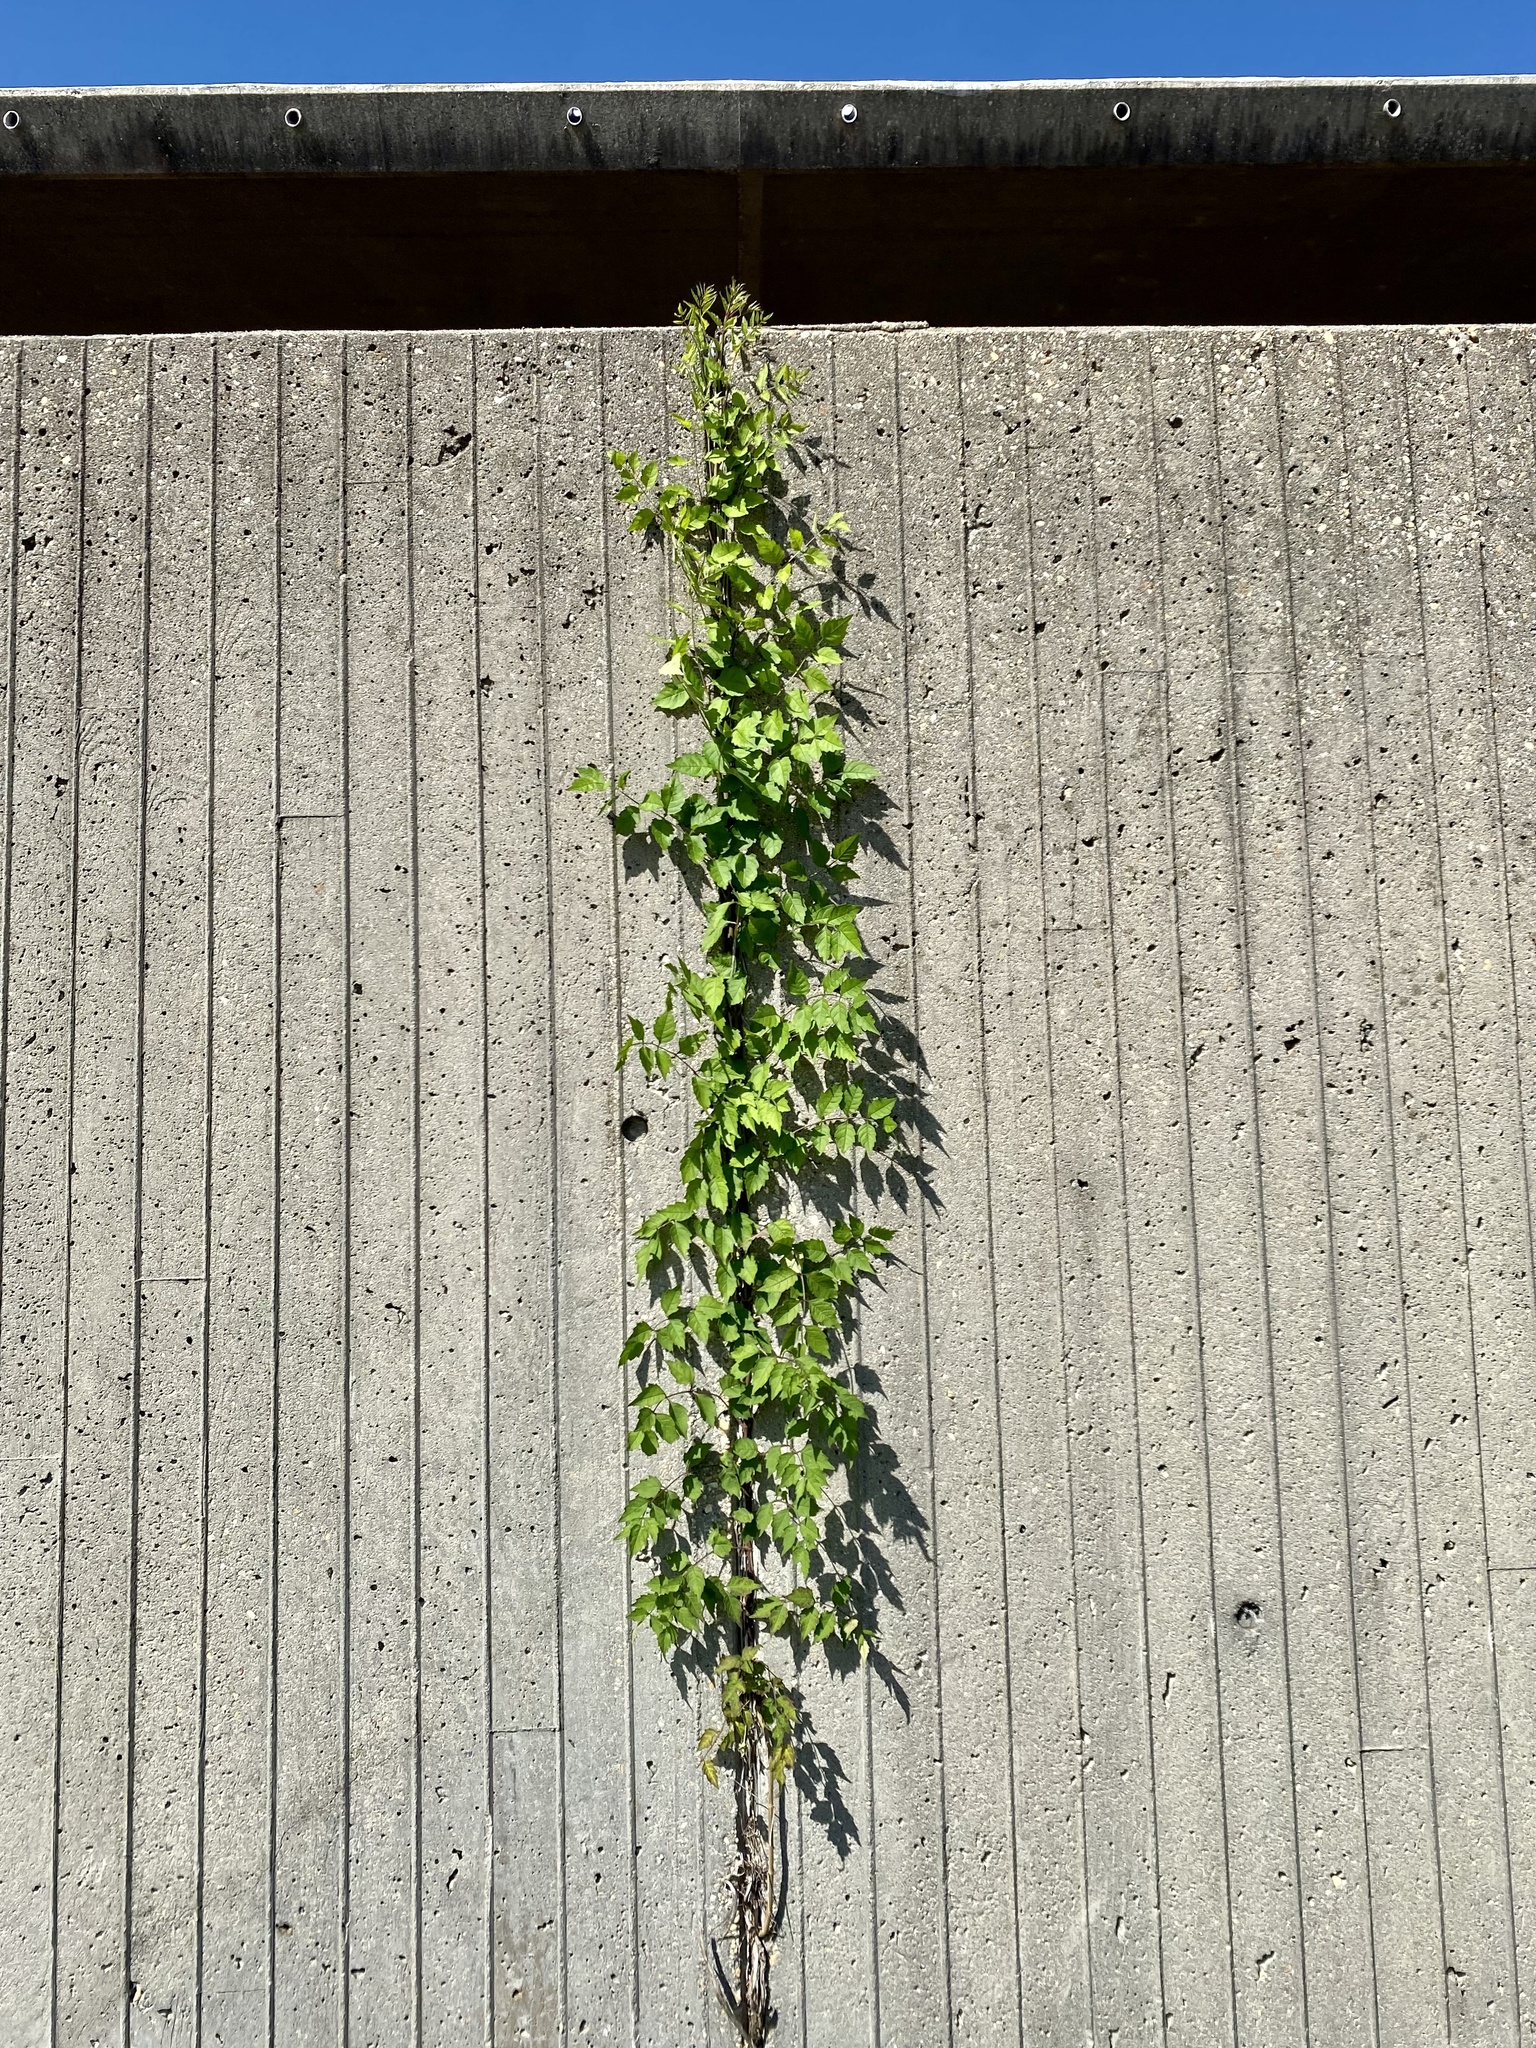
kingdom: Plantae
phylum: Tracheophyta
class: Magnoliopsida
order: Lamiales
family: Bignoniaceae
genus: Campsis
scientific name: Campsis radicans
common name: Trumpet-creeper
